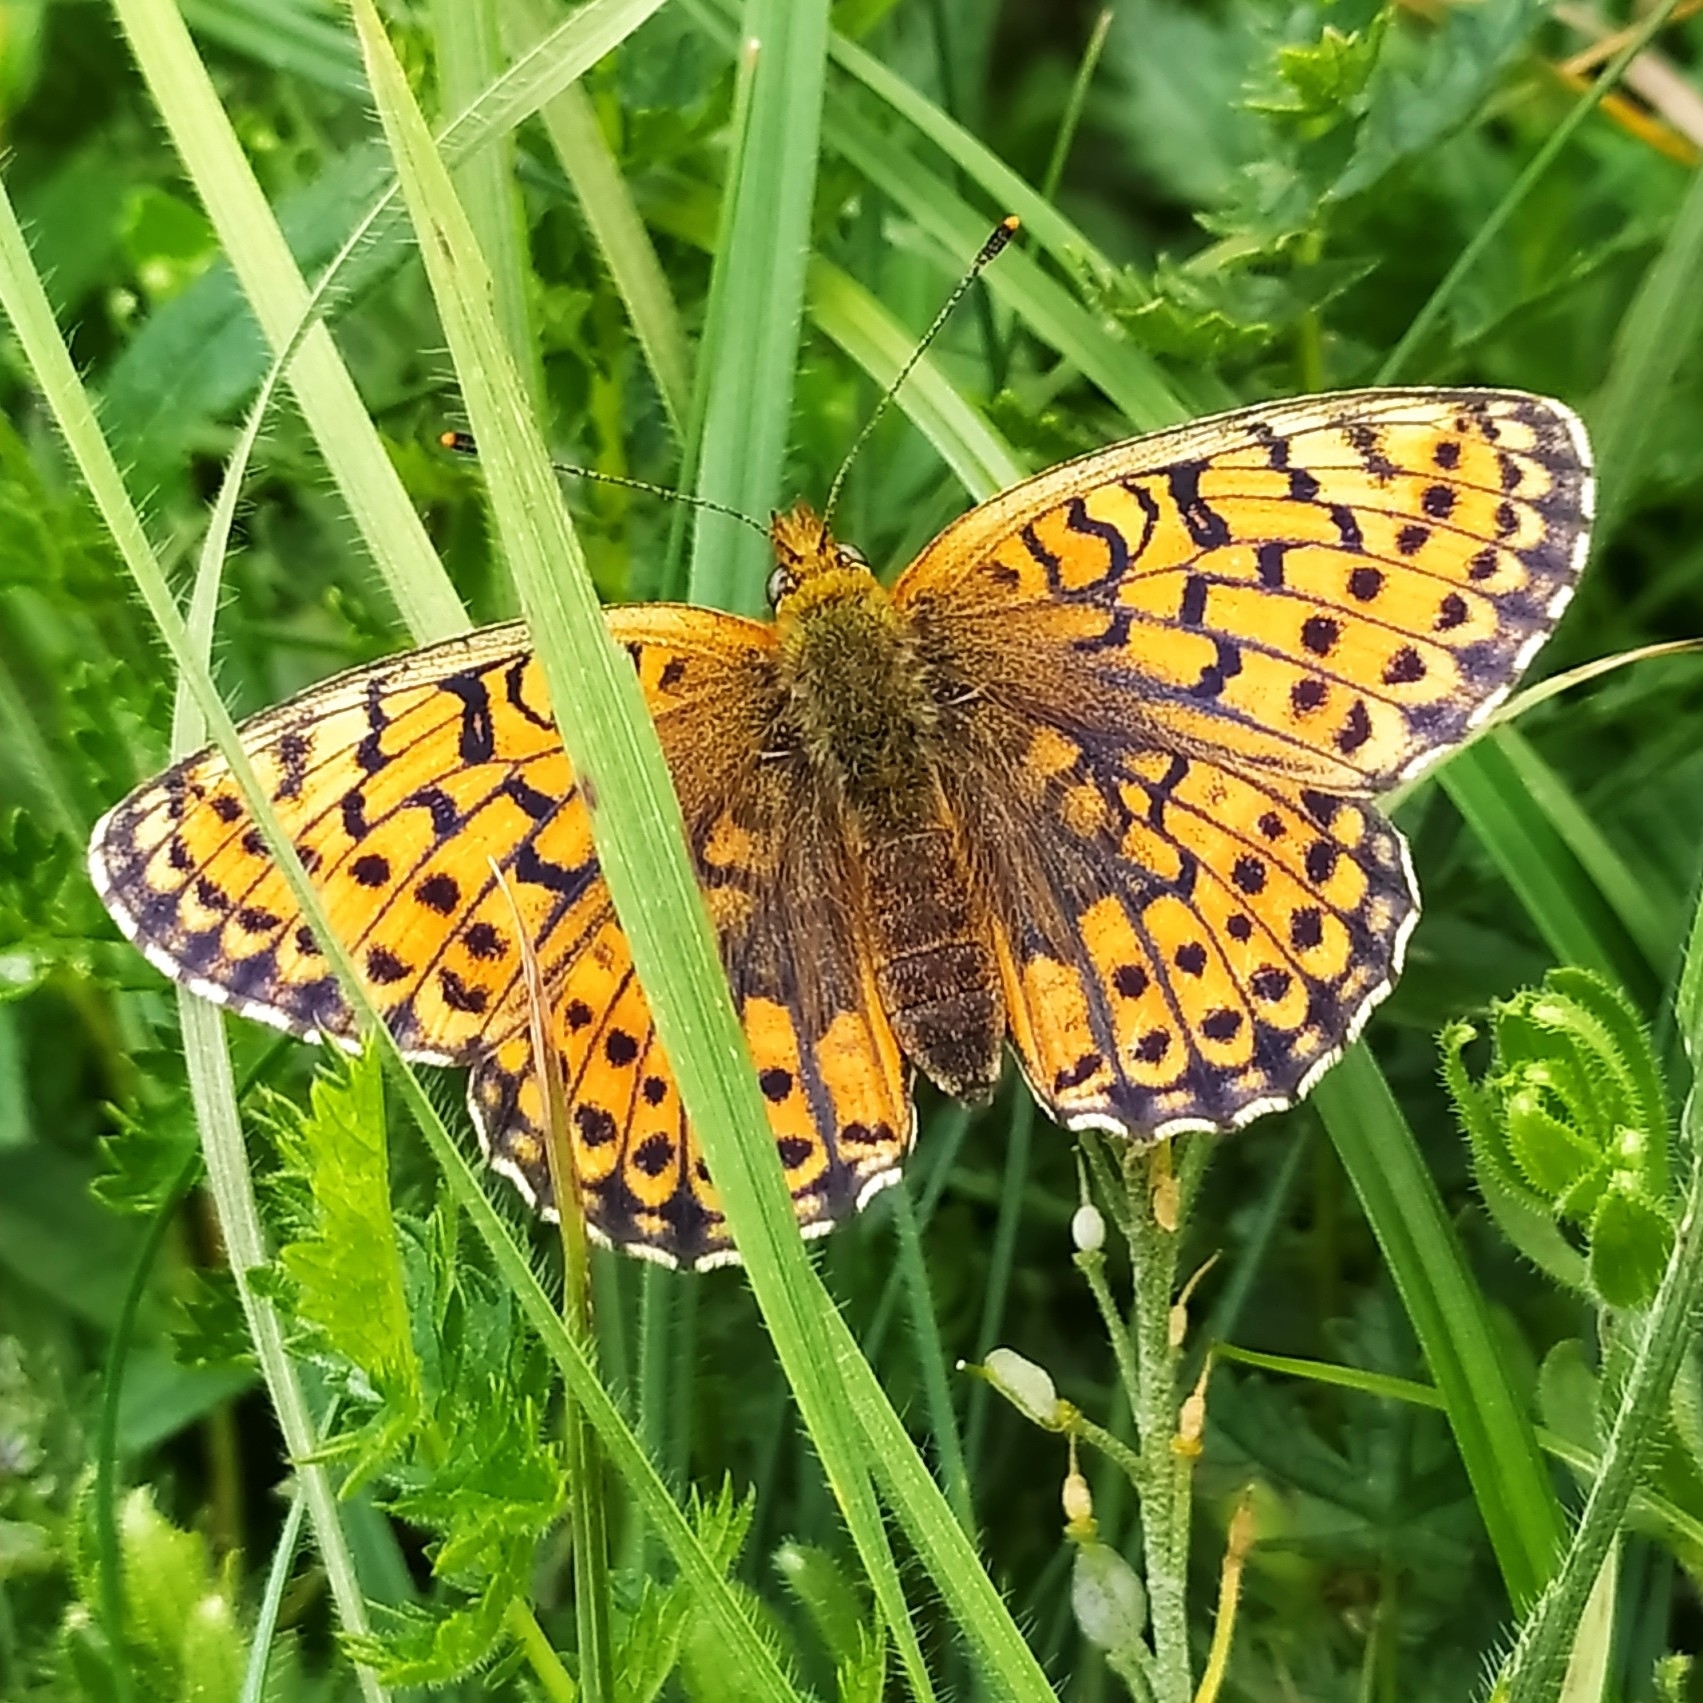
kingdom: Animalia
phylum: Arthropoda
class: Insecta
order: Lepidoptera
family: Nymphalidae
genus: Brenthis
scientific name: Brenthis hecate
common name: Twin-spot fritillary
